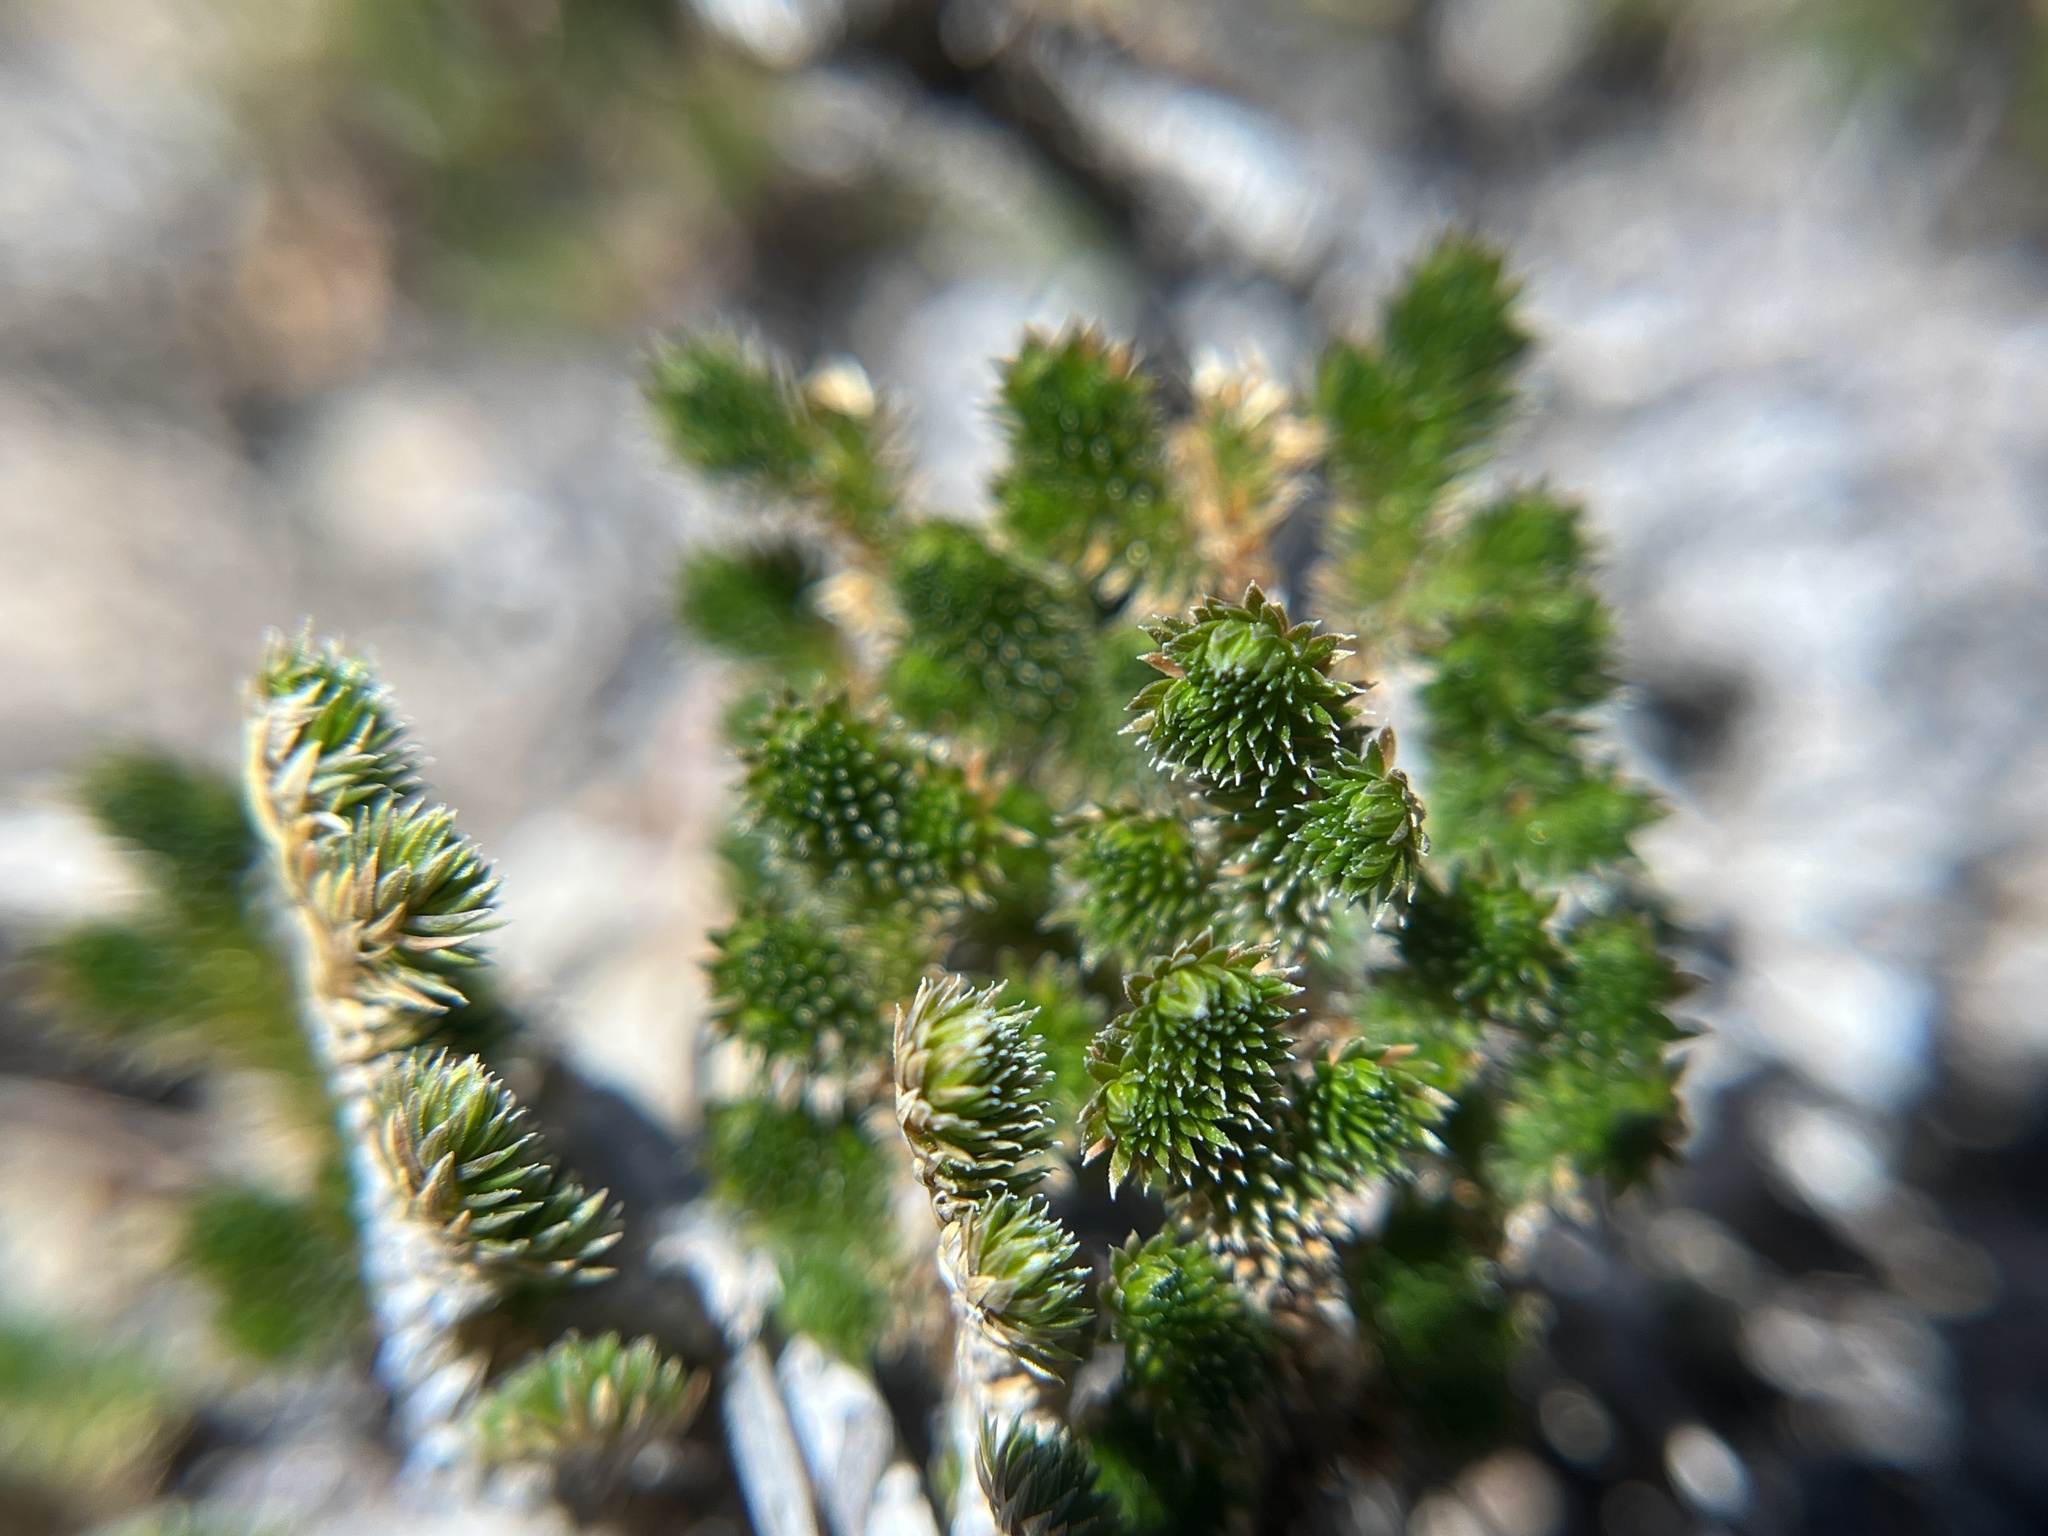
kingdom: Plantae
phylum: Tracheophyta
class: Lycopodiopsida
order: Selaginellales
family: Selaginellaceae
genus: Selaginella
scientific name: Selaginella arizonica
